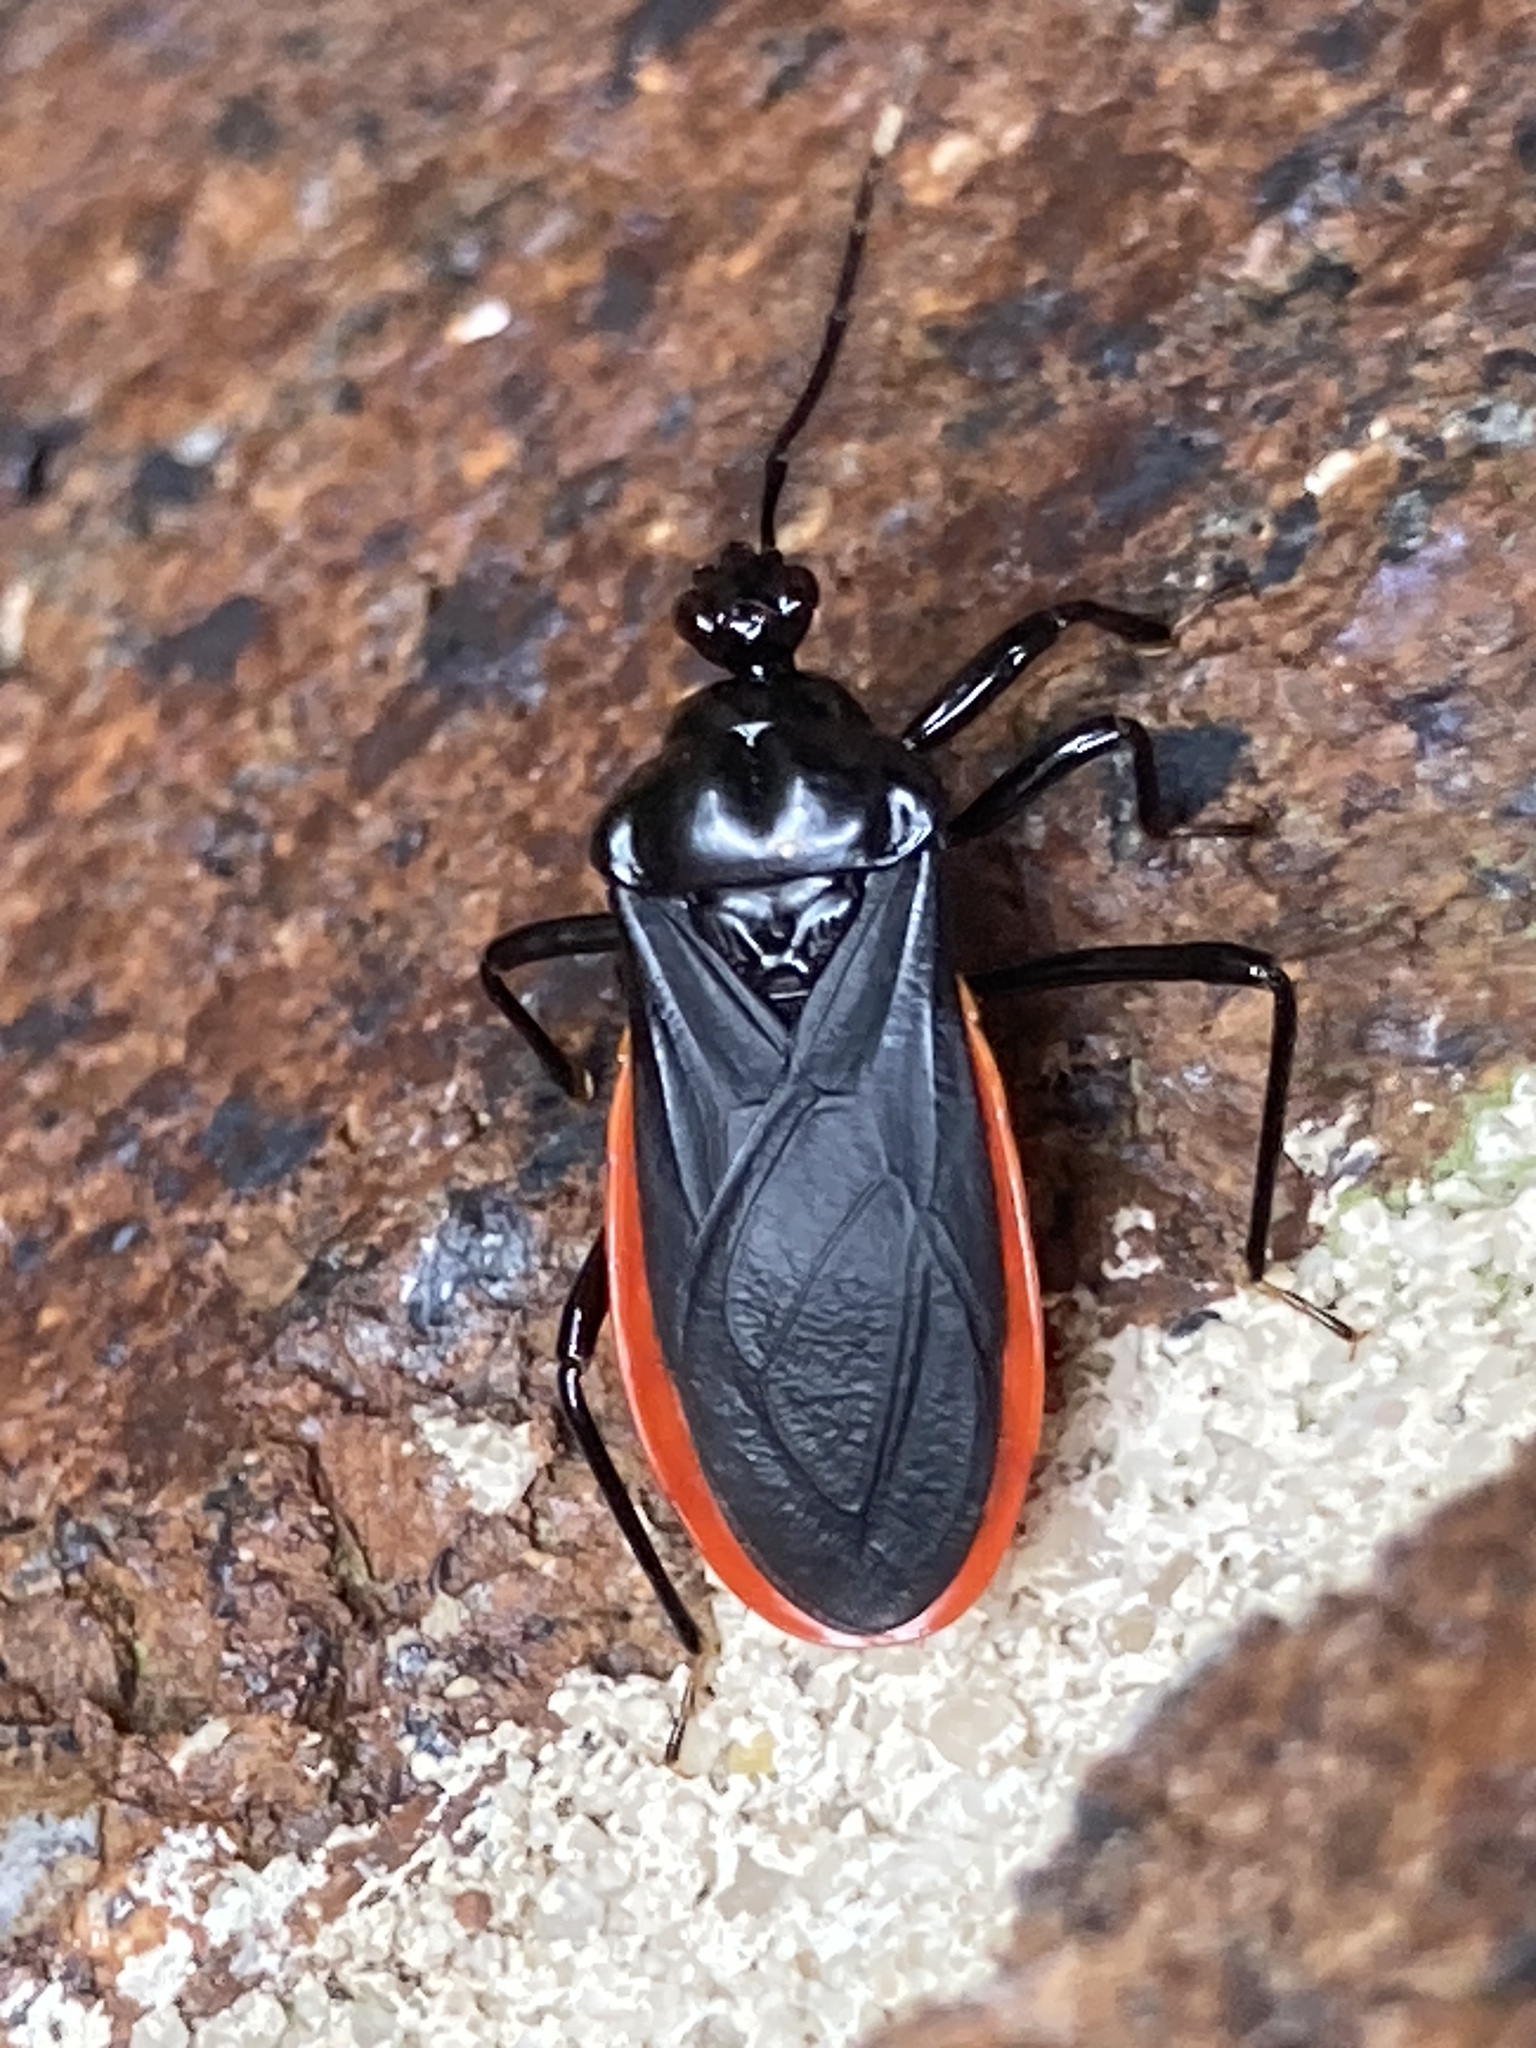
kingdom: Animalia
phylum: Arthropoda
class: Insecta
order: Hemiptera
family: Reduviidae
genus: Lyramna
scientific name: Lyramna vigil
